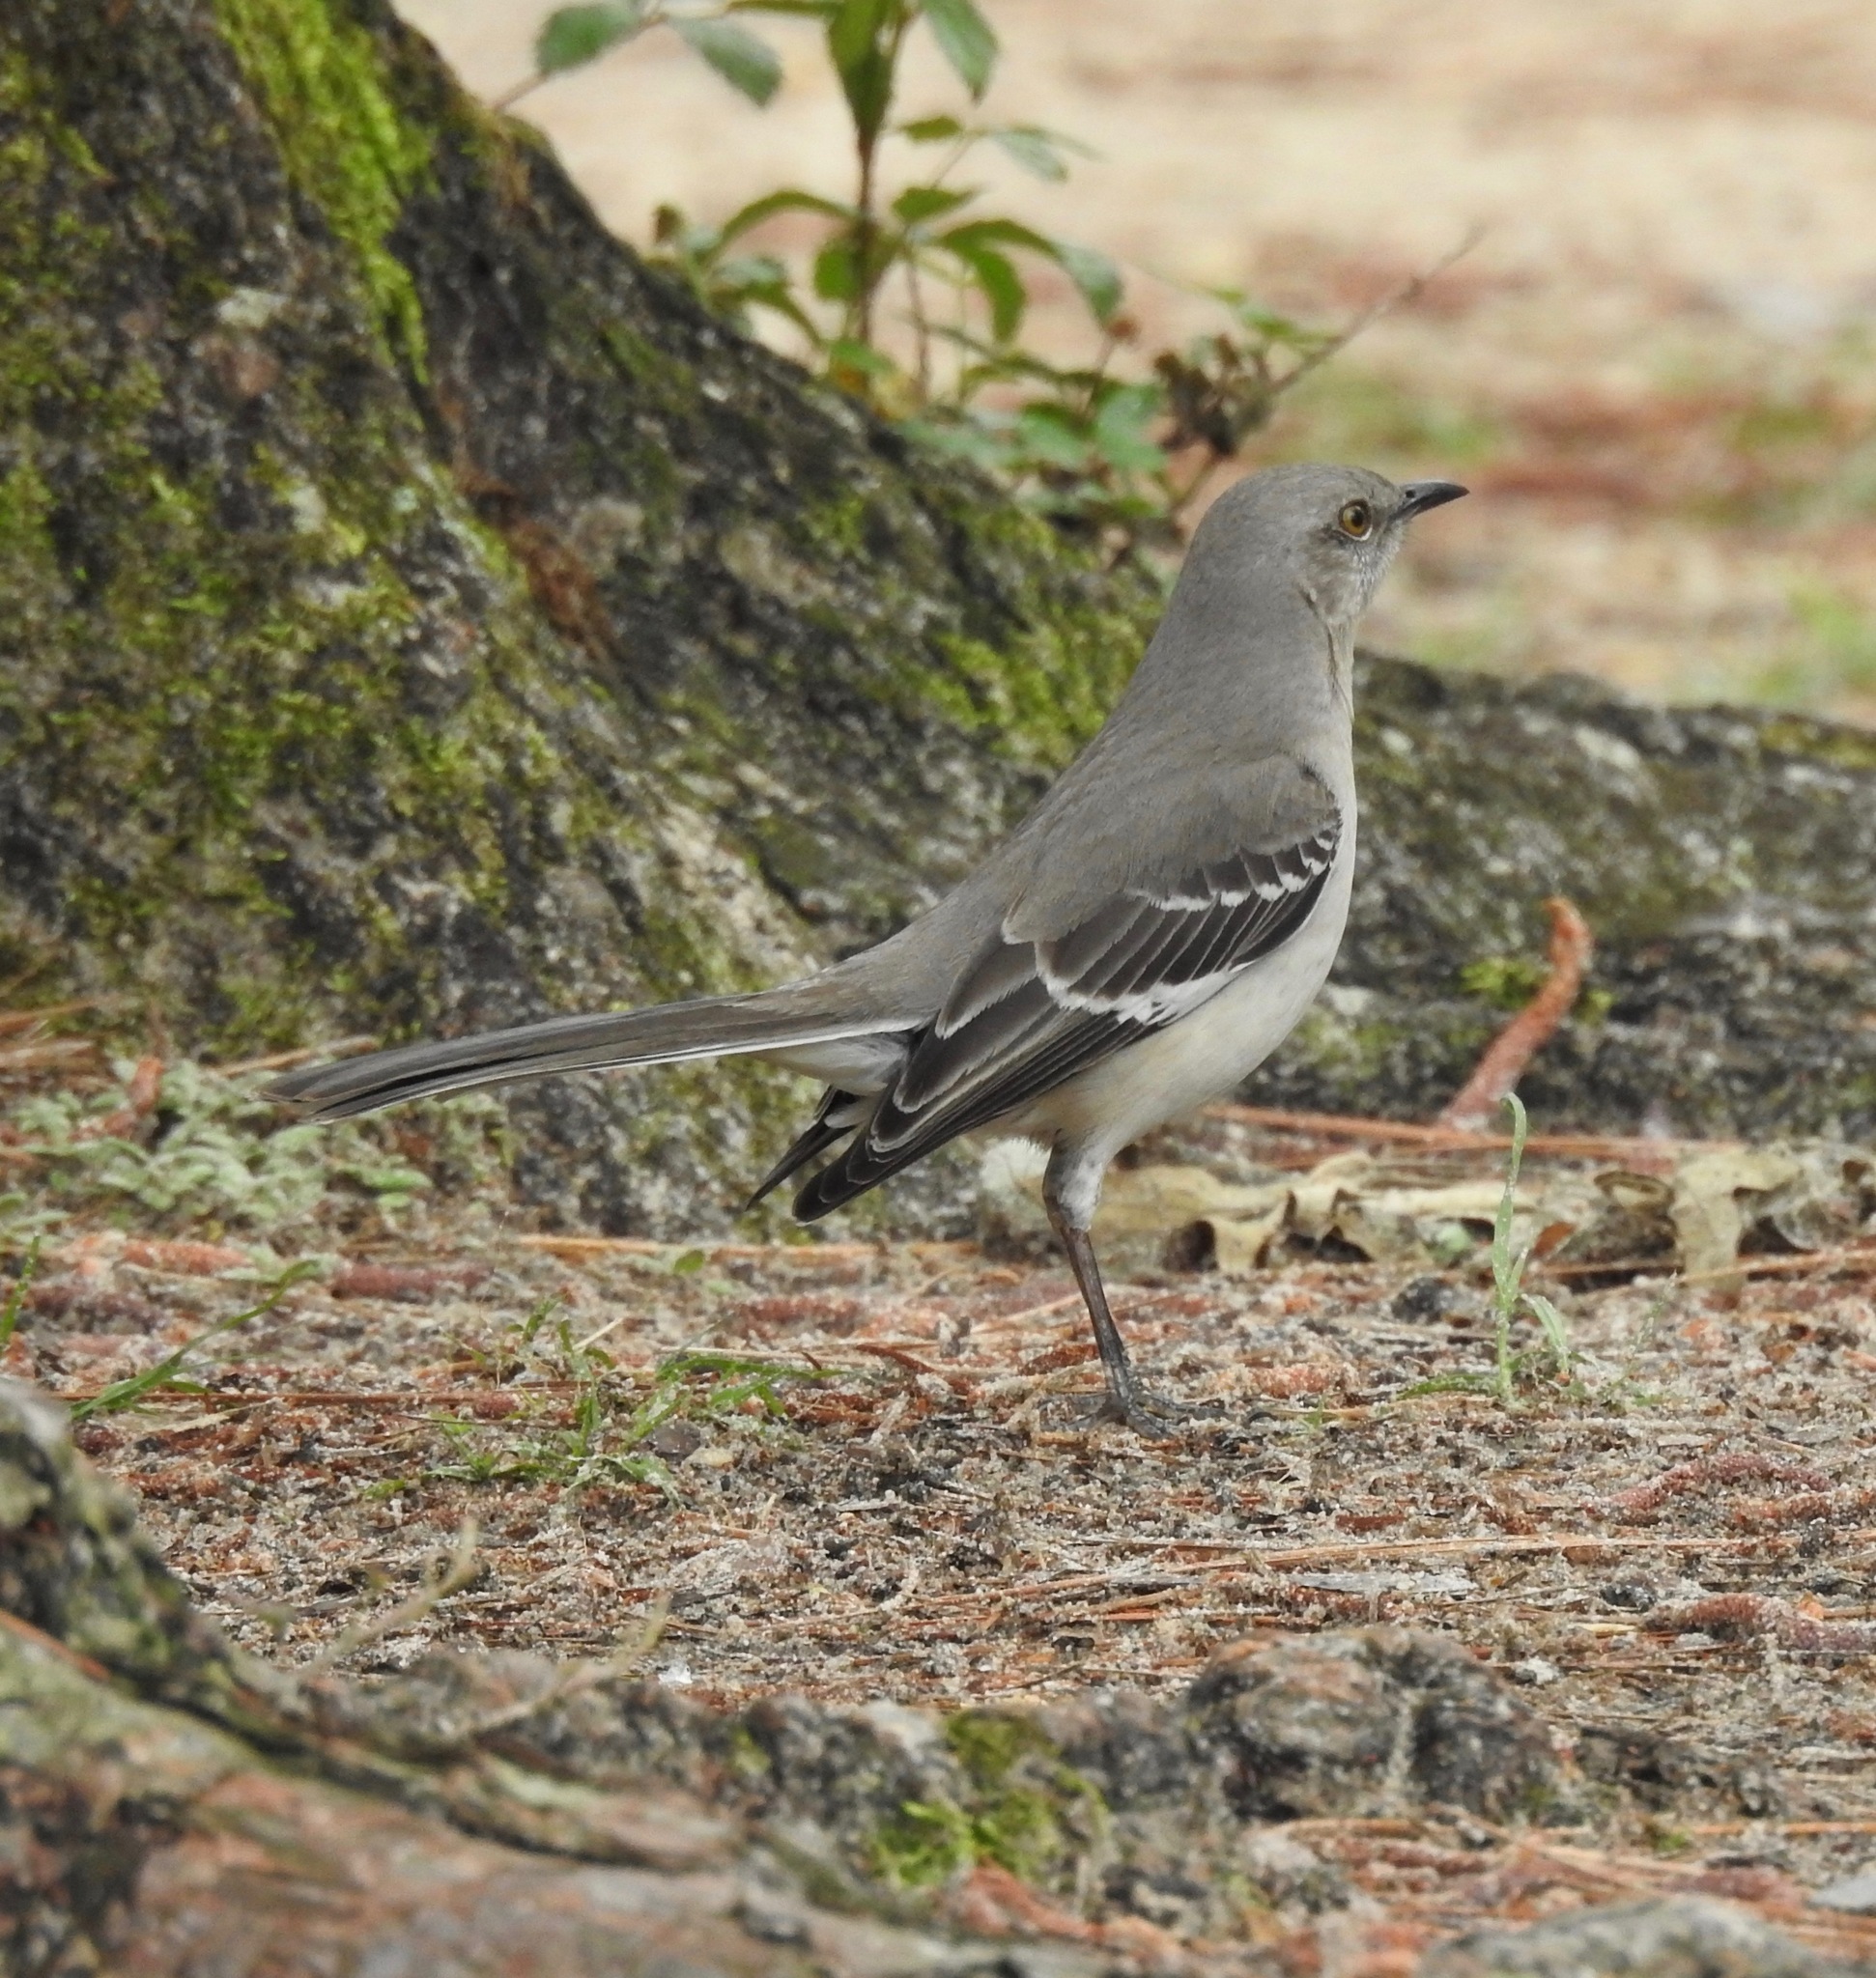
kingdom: Animalia
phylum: Chordata
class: Aves
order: Passeriformes
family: Mimidae
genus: Mimus
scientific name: Mimus polyglottos
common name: Northern mockingbird
